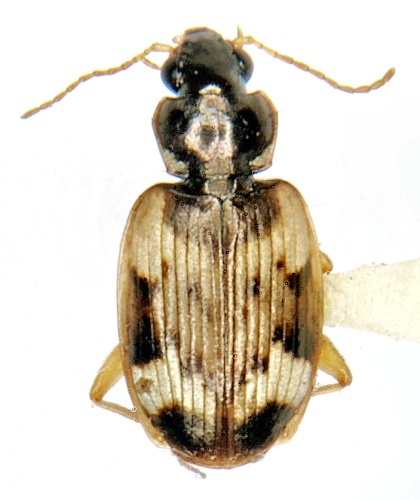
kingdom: Animalia
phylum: Arthropoda
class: Insecta
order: Coleoptera
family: Carabidae
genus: Tetragonoderus
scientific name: Tetragonoderus fasciatus
